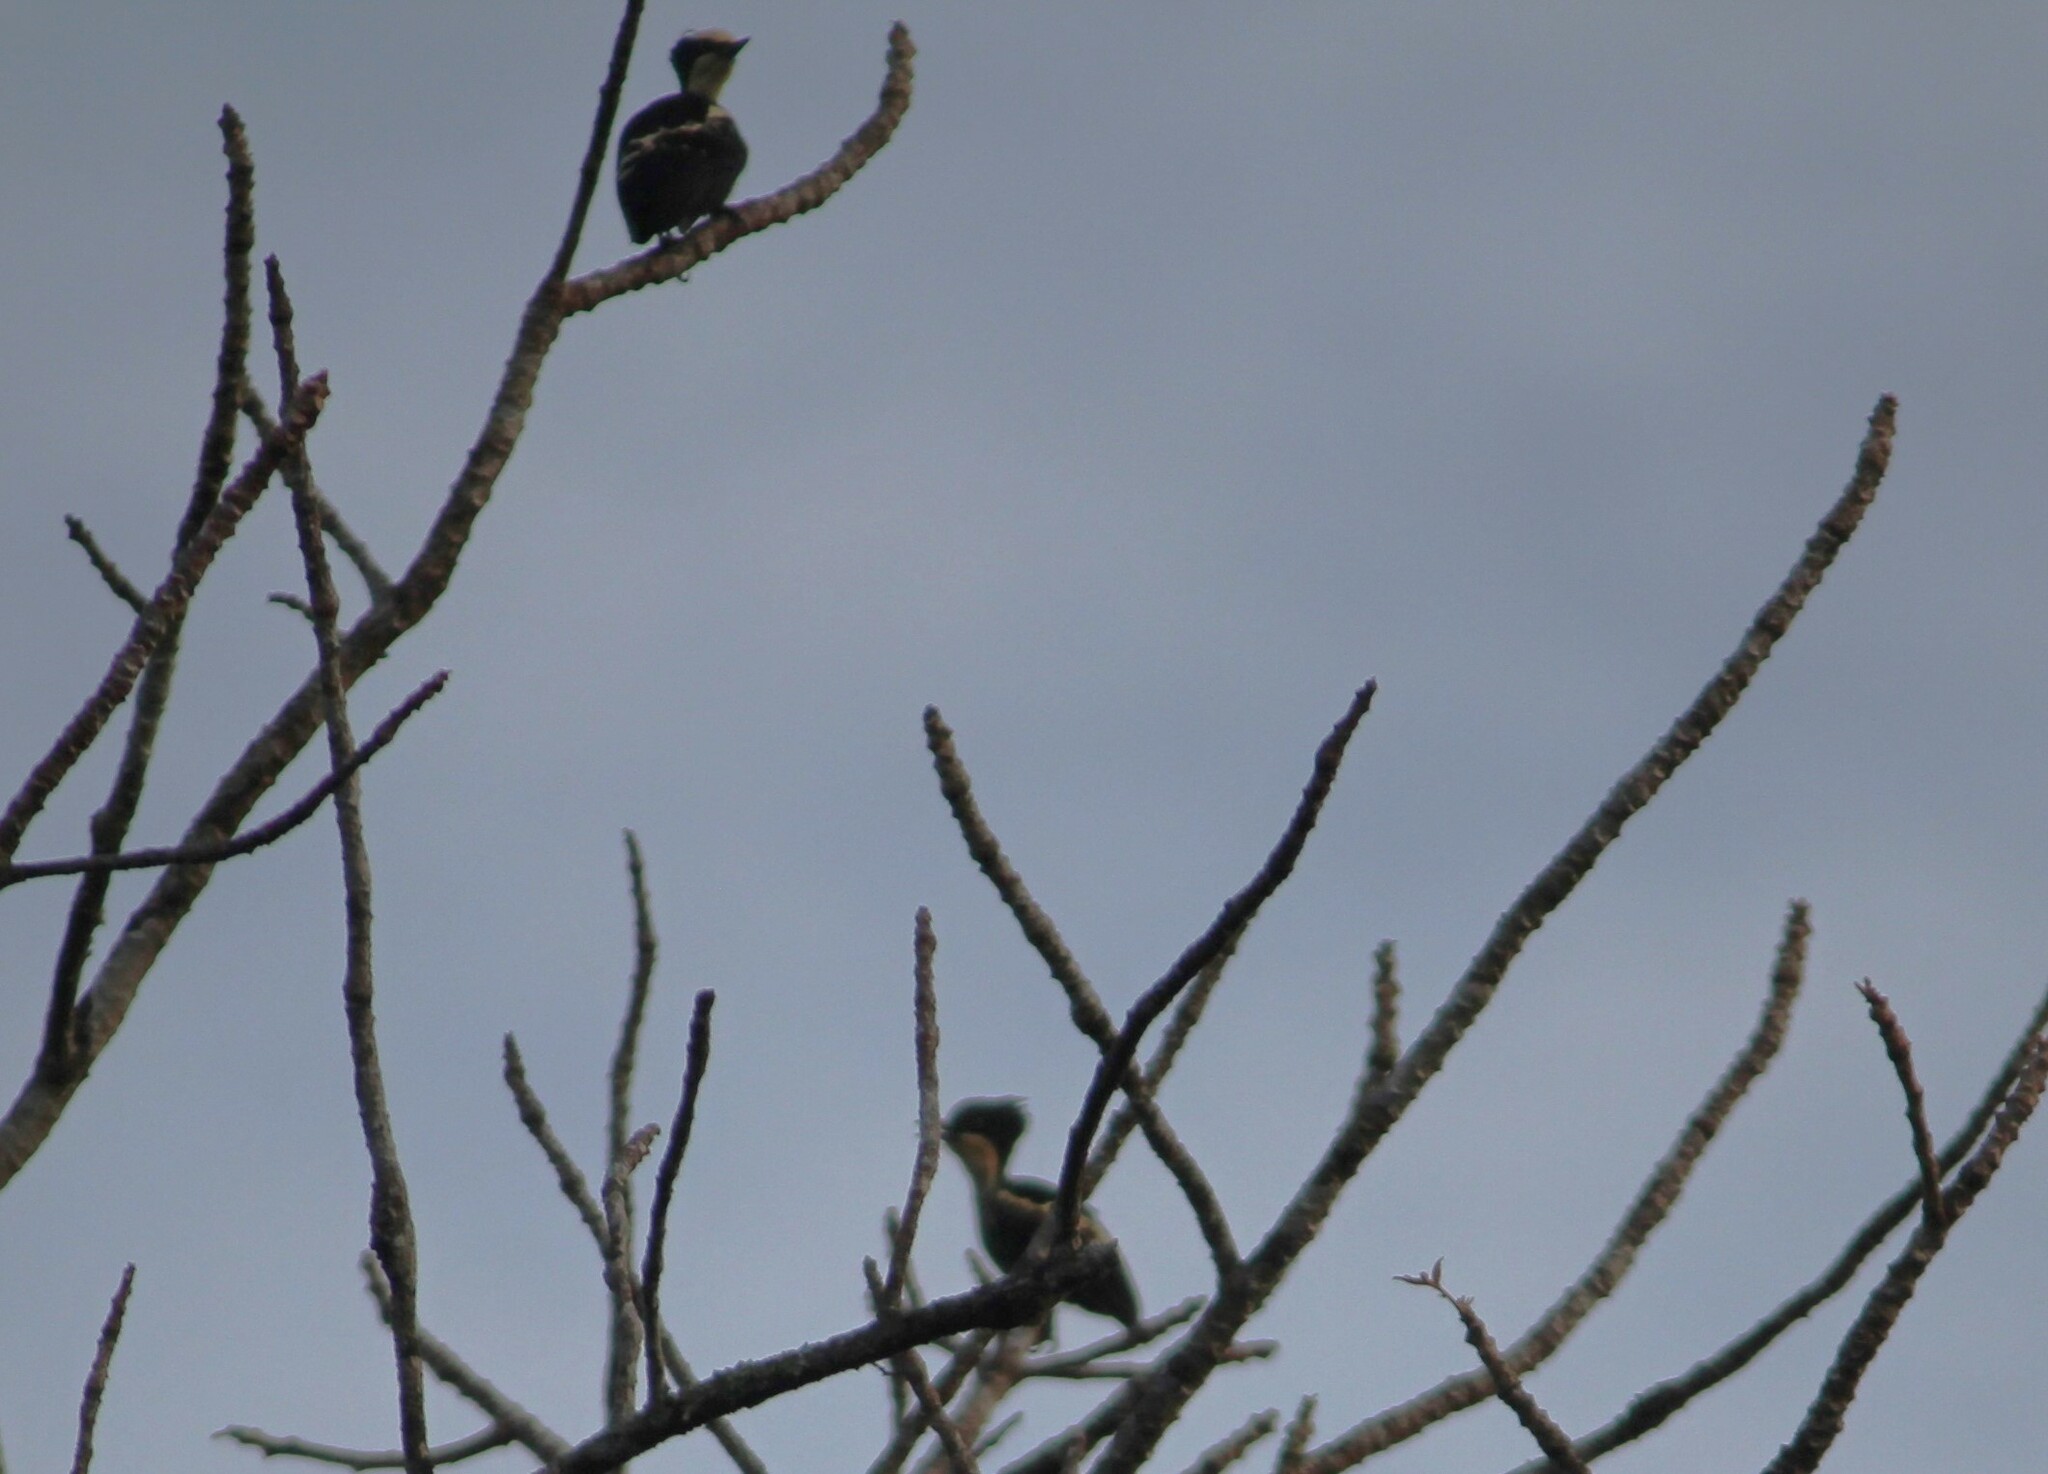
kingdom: Animalia
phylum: Chordata
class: Aves
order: Piciformes
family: Picidae
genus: Hemicircus
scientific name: Hemicircus canente
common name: Heart-spotted woodpecker
